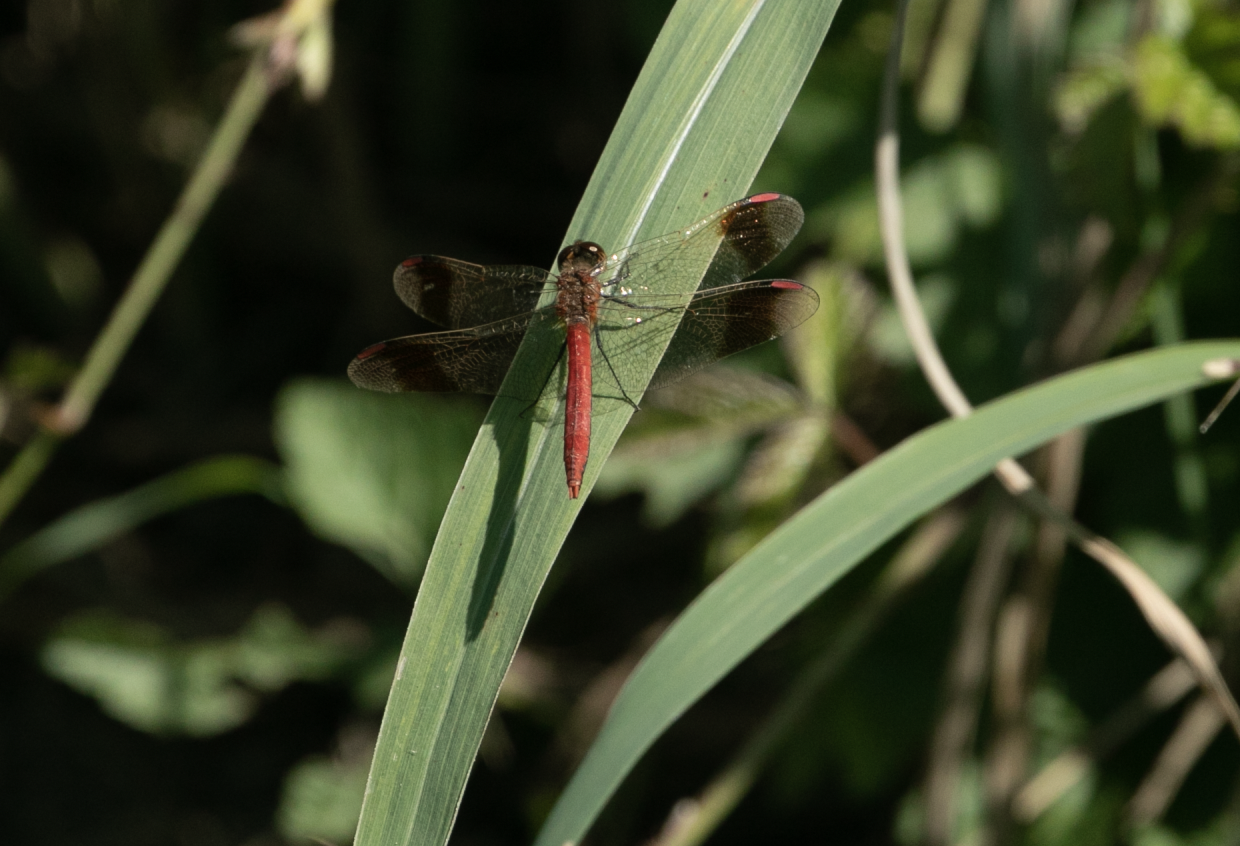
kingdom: Animalia
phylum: Arthropoda
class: Insecta
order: Odonata
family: Libellulidae
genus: Sympetrum
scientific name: Sympetrum pedemontanum
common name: Banded darter
